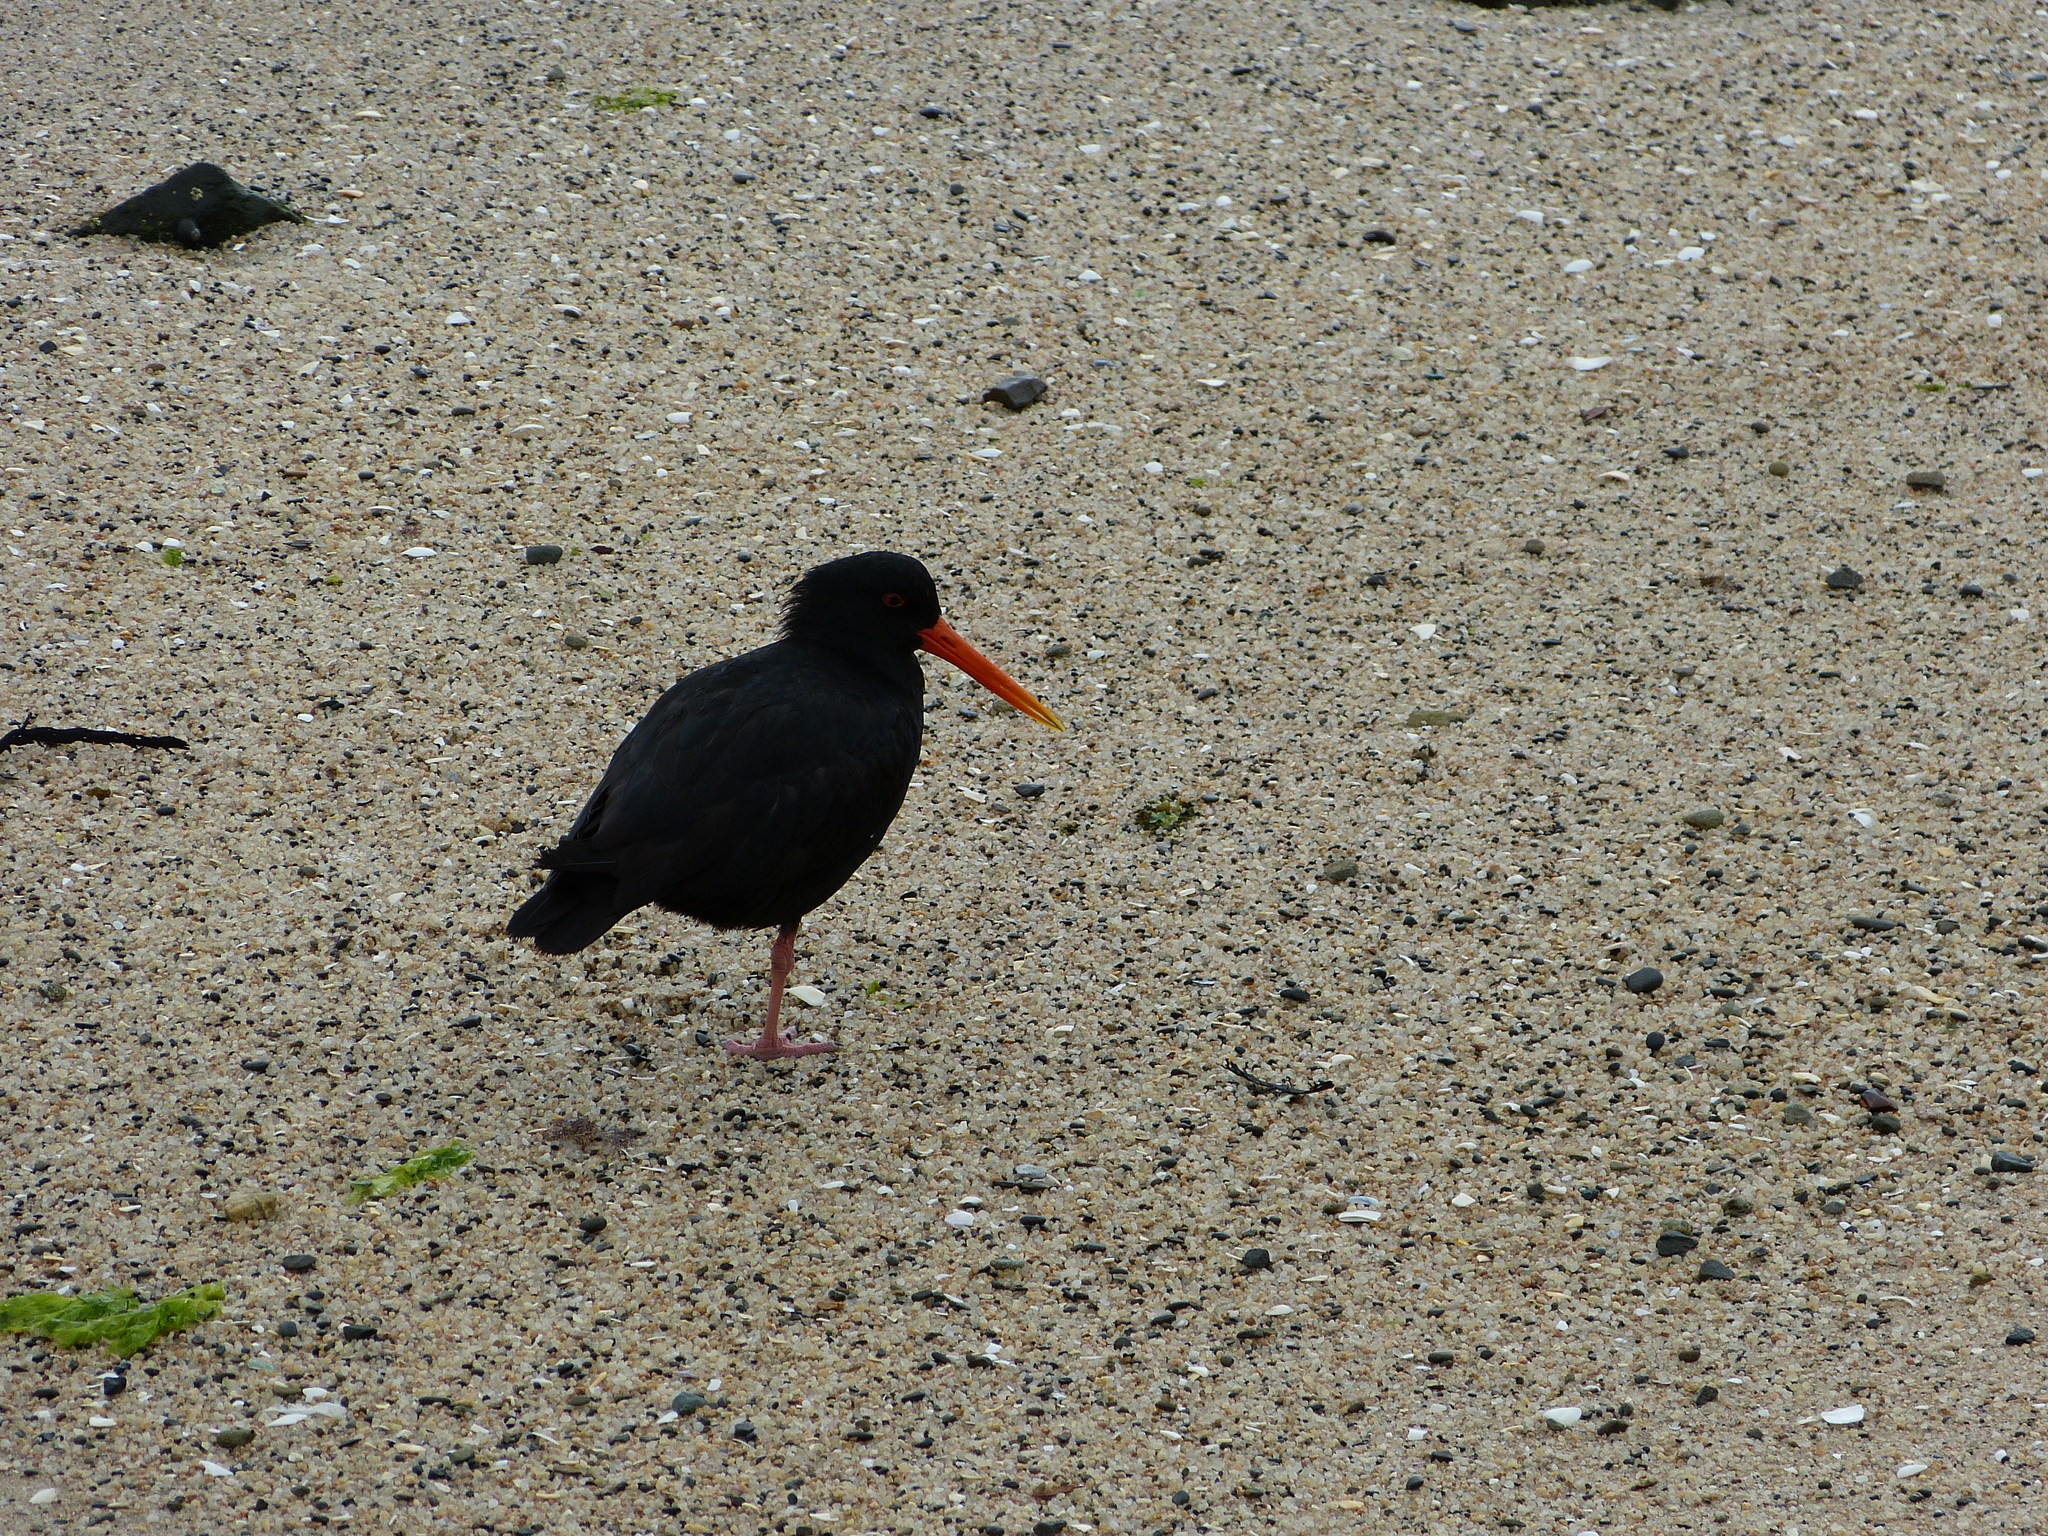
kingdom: Animalia
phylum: Chordata
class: Aves
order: Charadriiformes
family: Haematopodidae
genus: Haematopus
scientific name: Haematopus unicolor
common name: Variable oystercatcher
